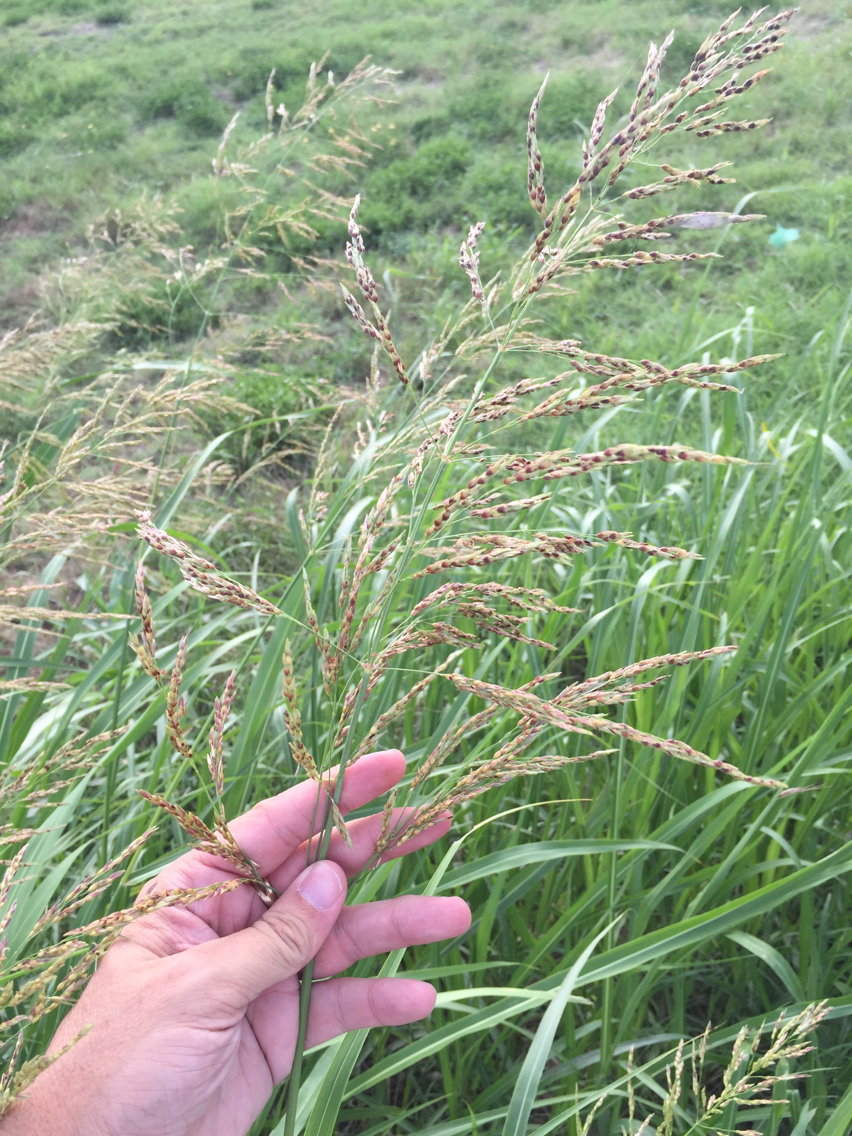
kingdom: Plantae
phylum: Tracheophyta
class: Liliopsida
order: Poales
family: Poaceae
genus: Sorghum
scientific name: Sorghum halepense
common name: Johnson-grass
